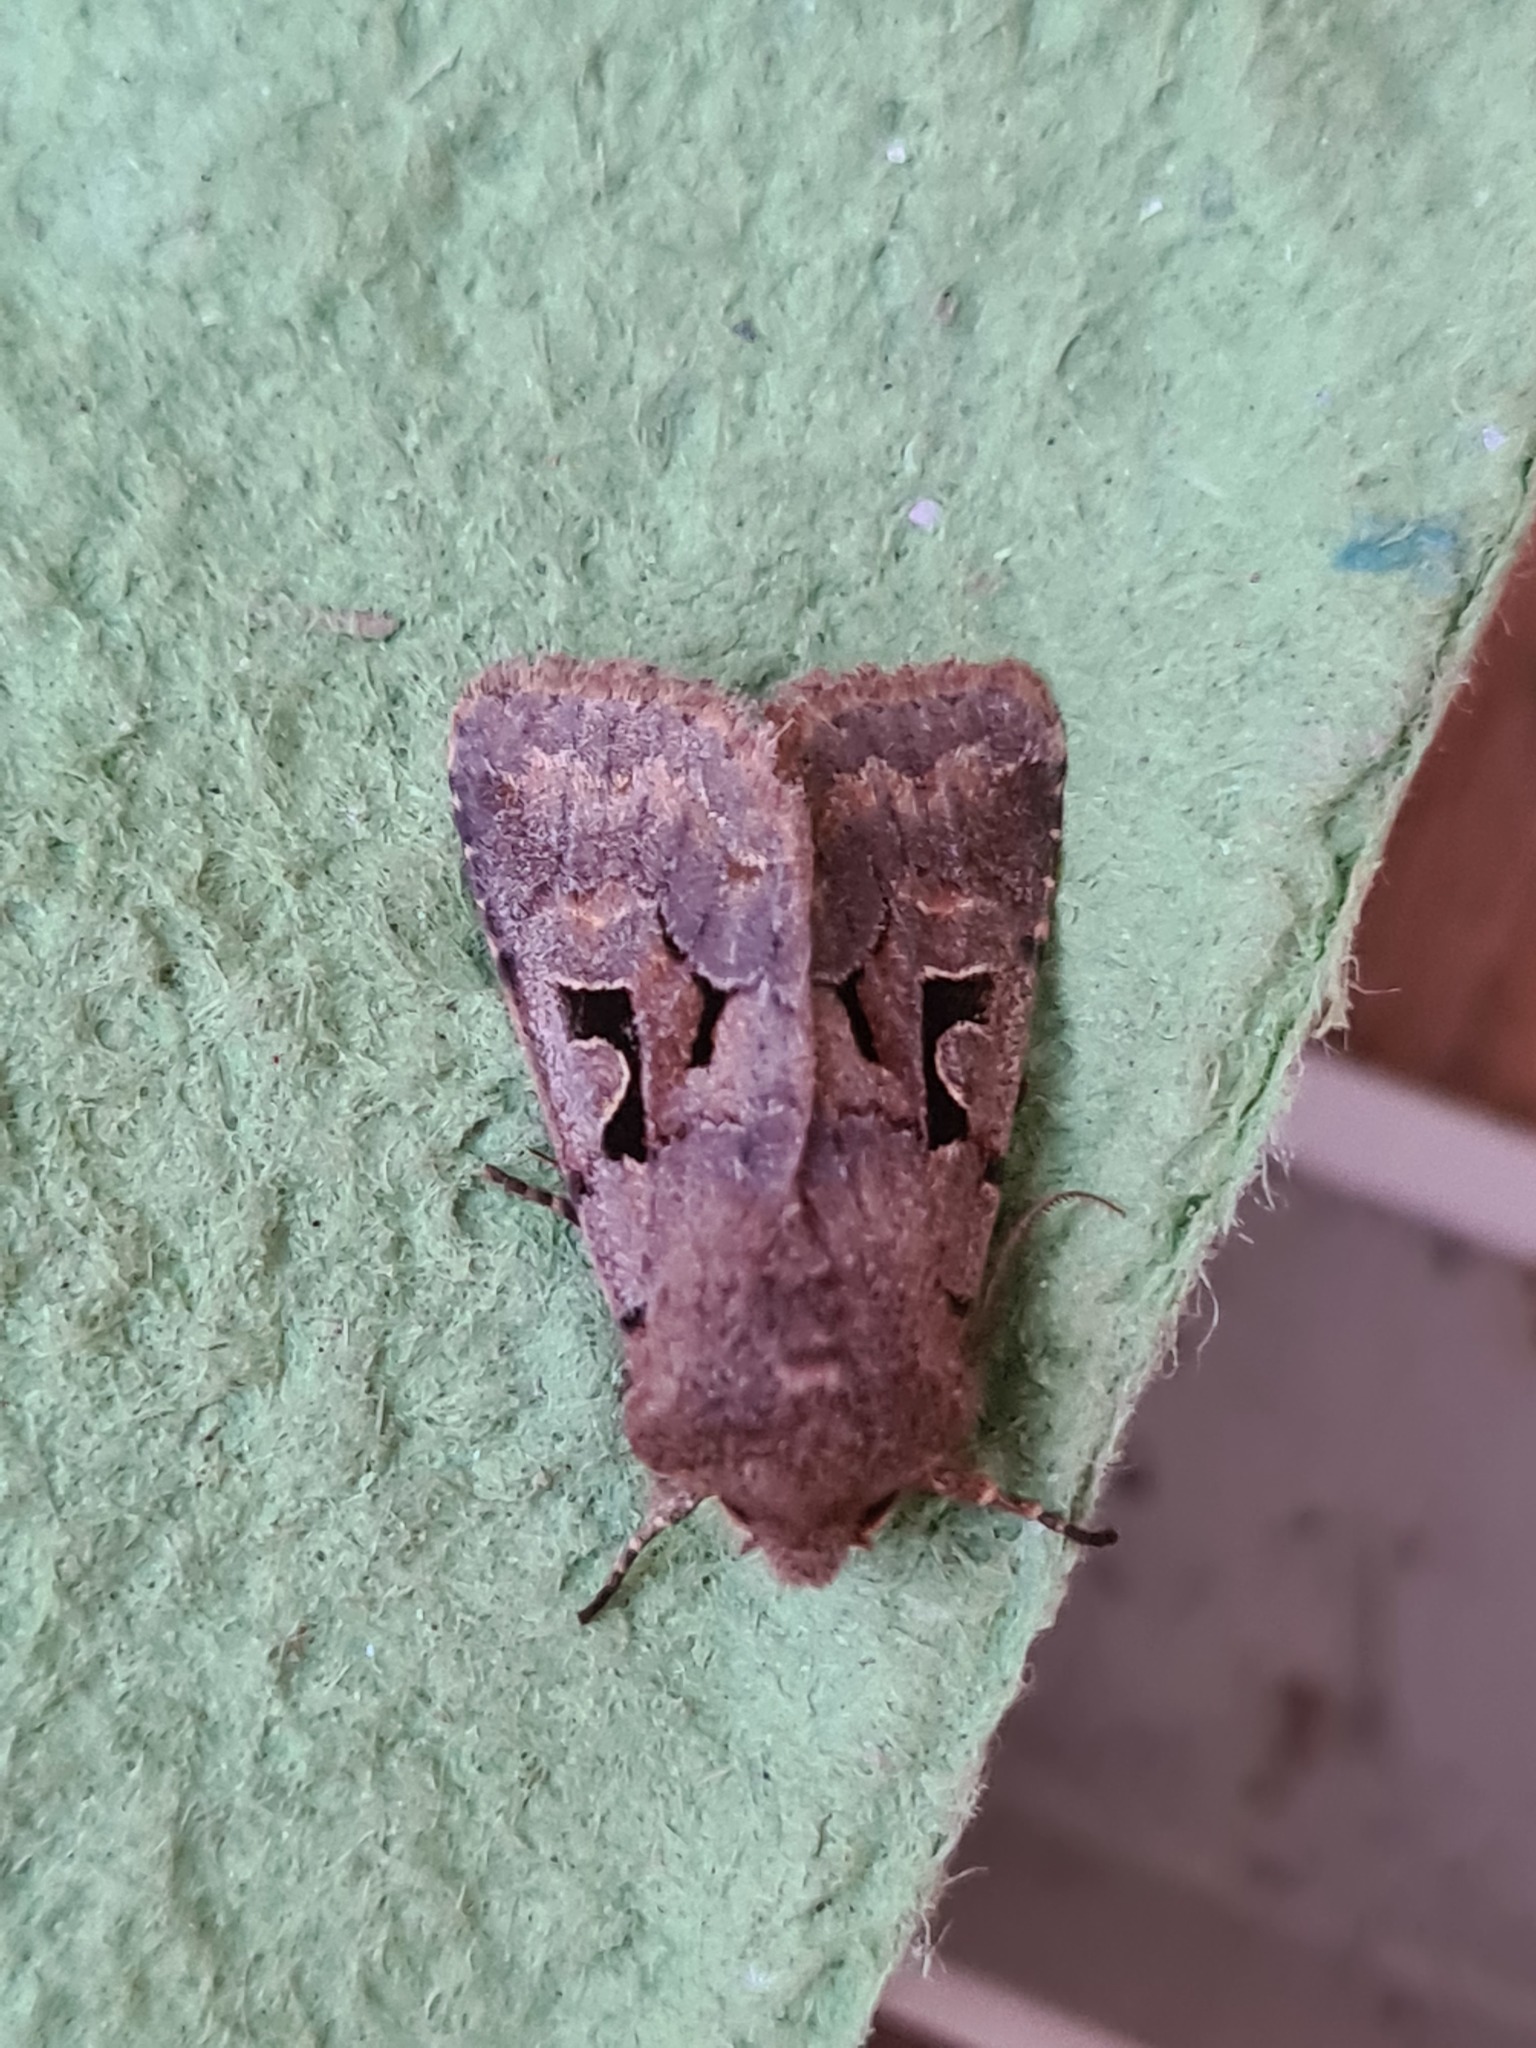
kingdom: Animalia
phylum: Arthropoda
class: Insecta
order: Lepidoptera
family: Noctuidae
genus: Orthosia
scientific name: Orthosia gothica
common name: Hebrew character
